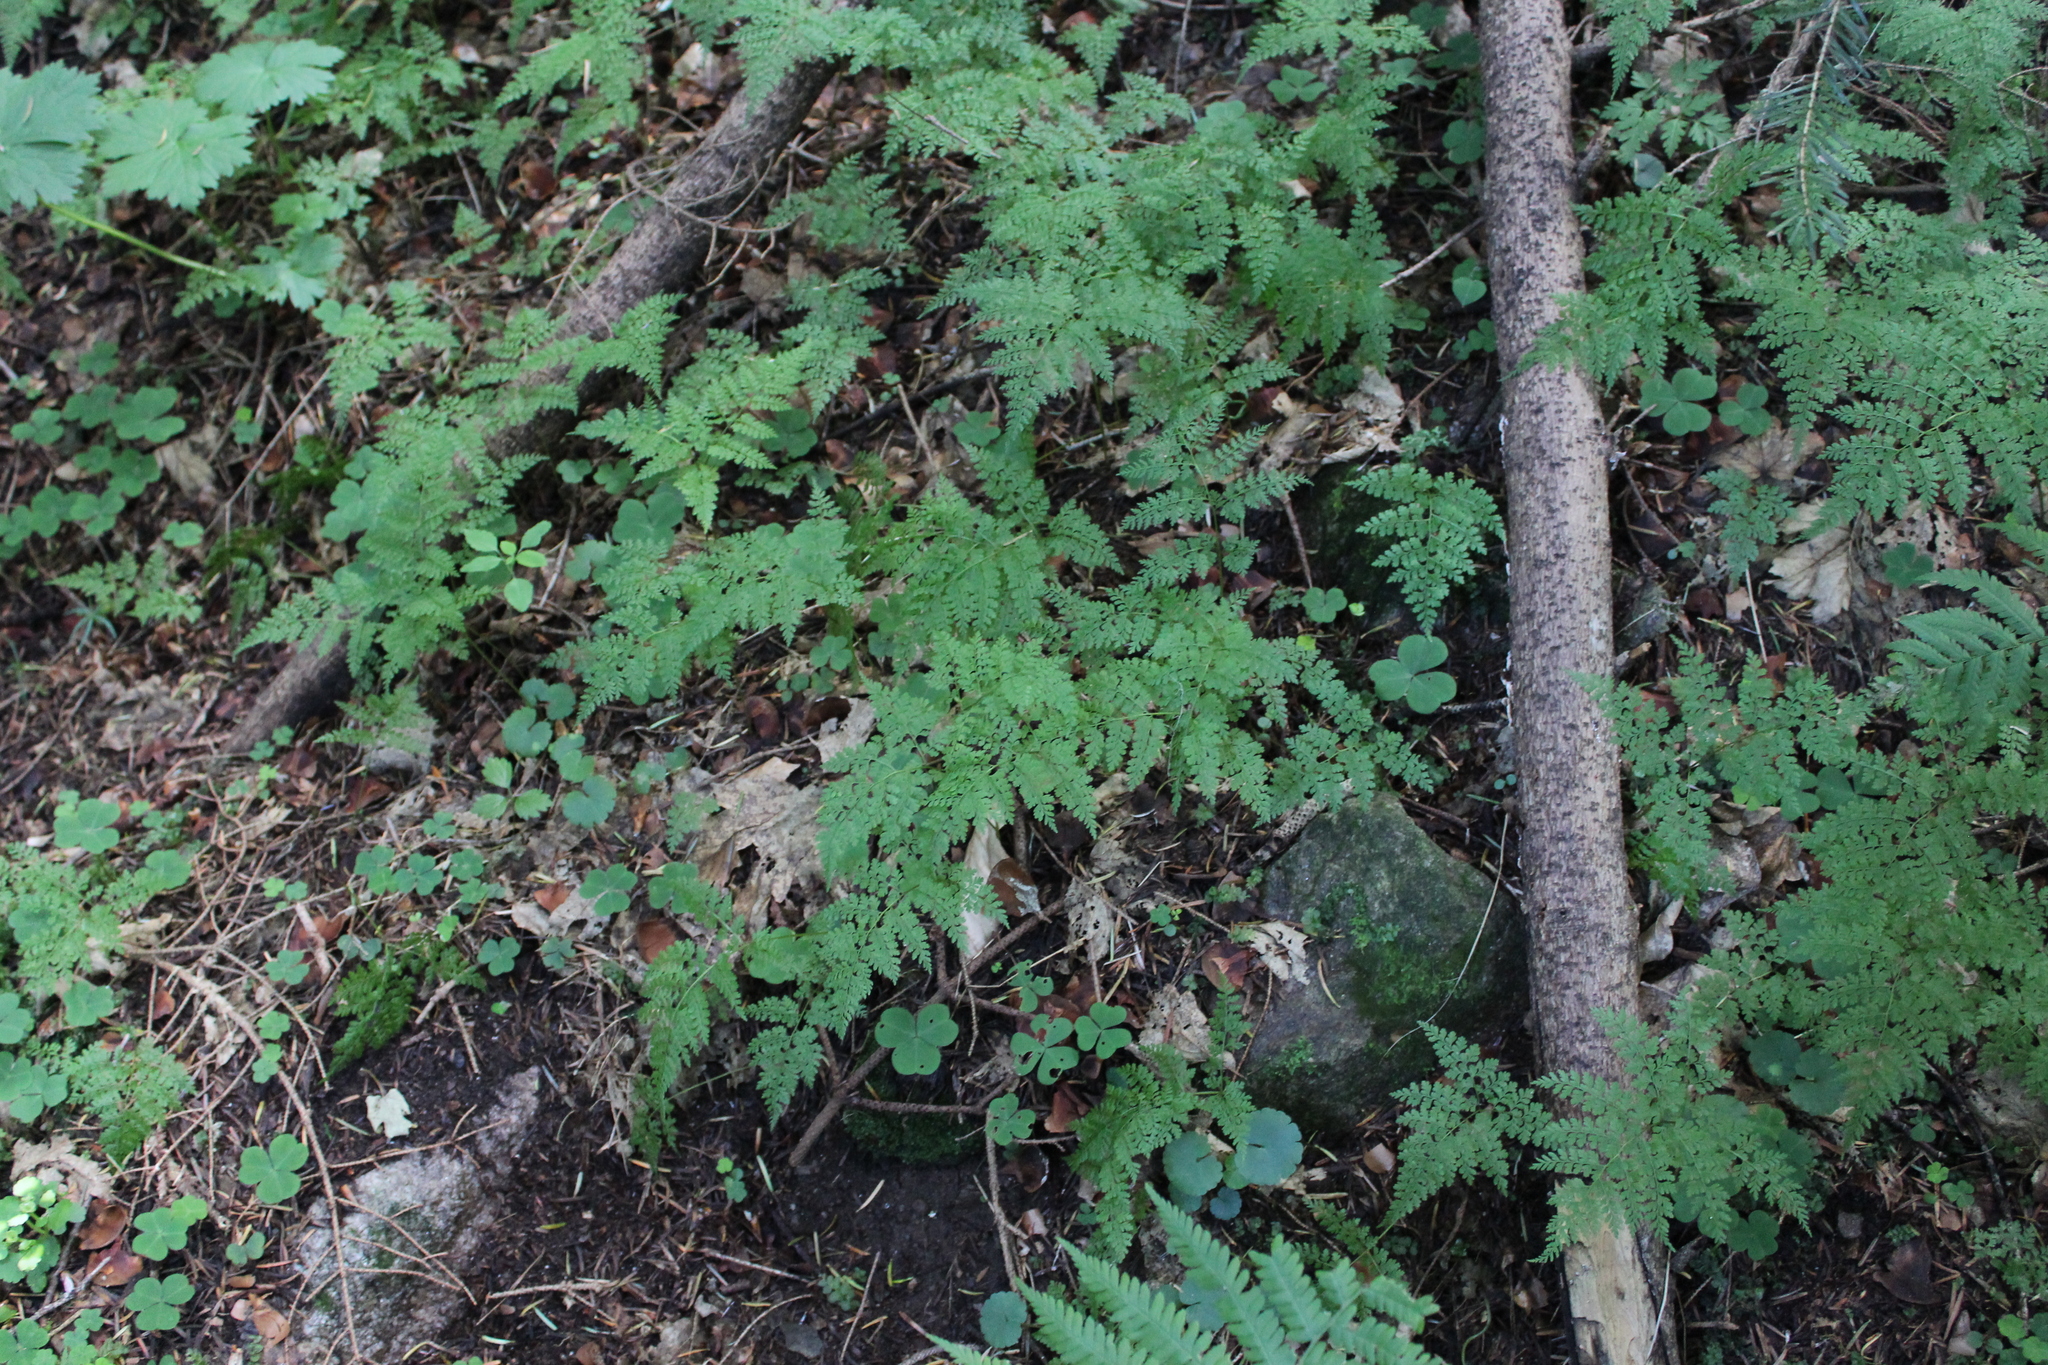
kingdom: Plantae
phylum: Tracheophyta
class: Polypodiopsida
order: Polypodiales
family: Cystopteridaceae
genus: Cystopteris
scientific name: Cystopteris sudetica
